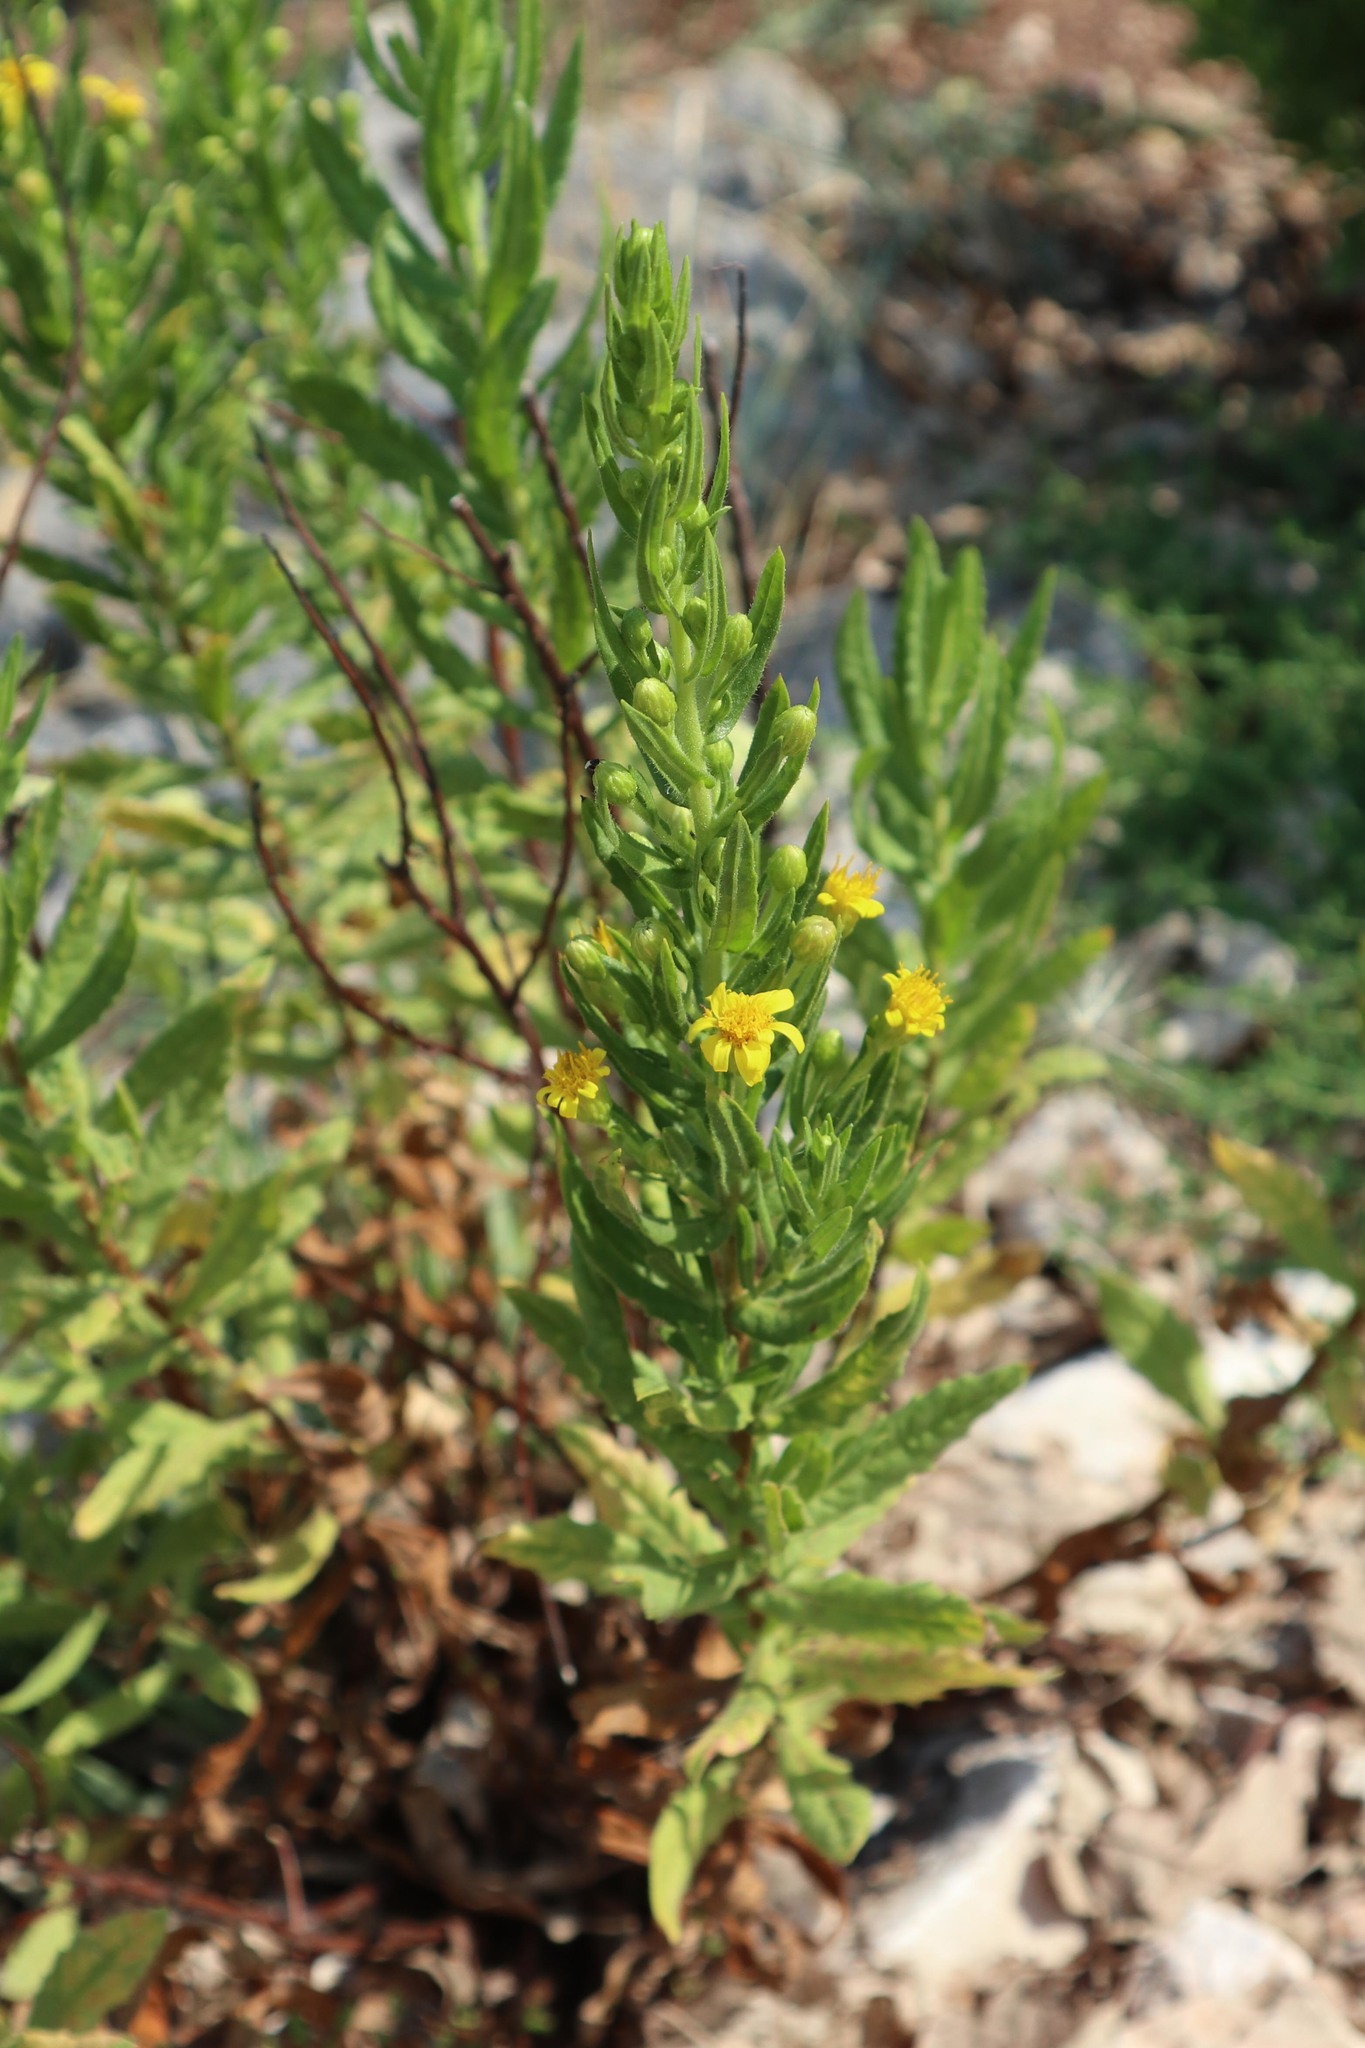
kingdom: Plantae
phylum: Tracheophyta
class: Magnoliopsida
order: Asterales
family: Asteraceae
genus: Dittrichia
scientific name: Dittrichia viscosa
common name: Woody fleabane
